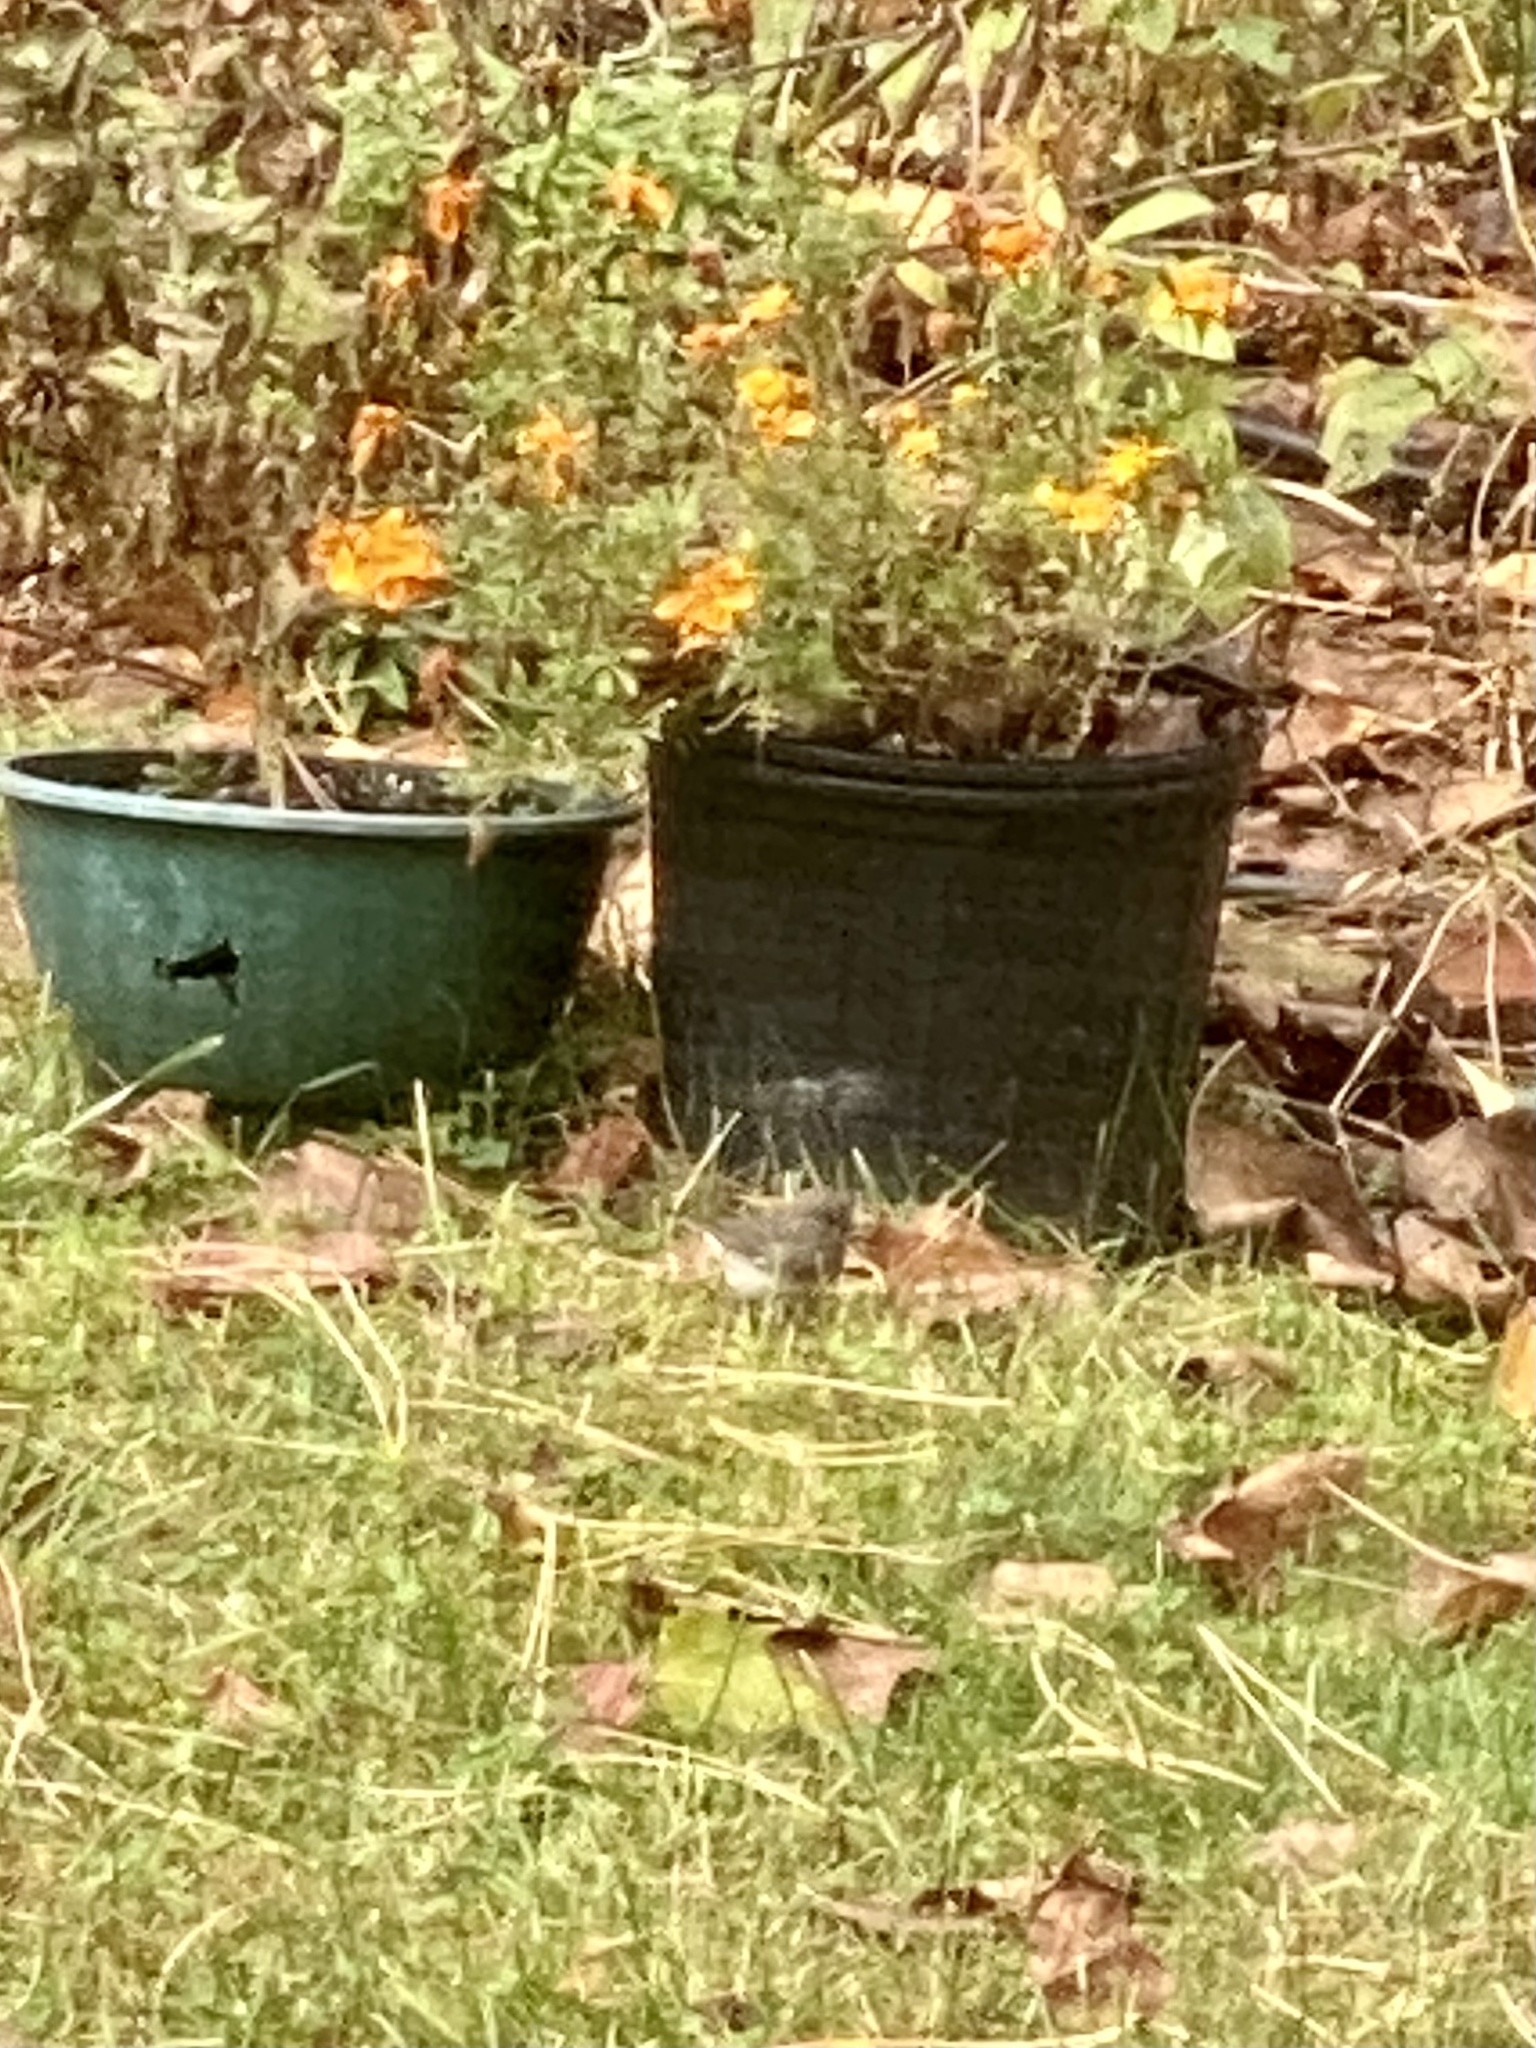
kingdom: Animalia
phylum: Chordata
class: Aves
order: Passeriformes
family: Passerellidae
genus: Junco
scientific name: Junco hyemalis
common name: Dark-eyed junco
